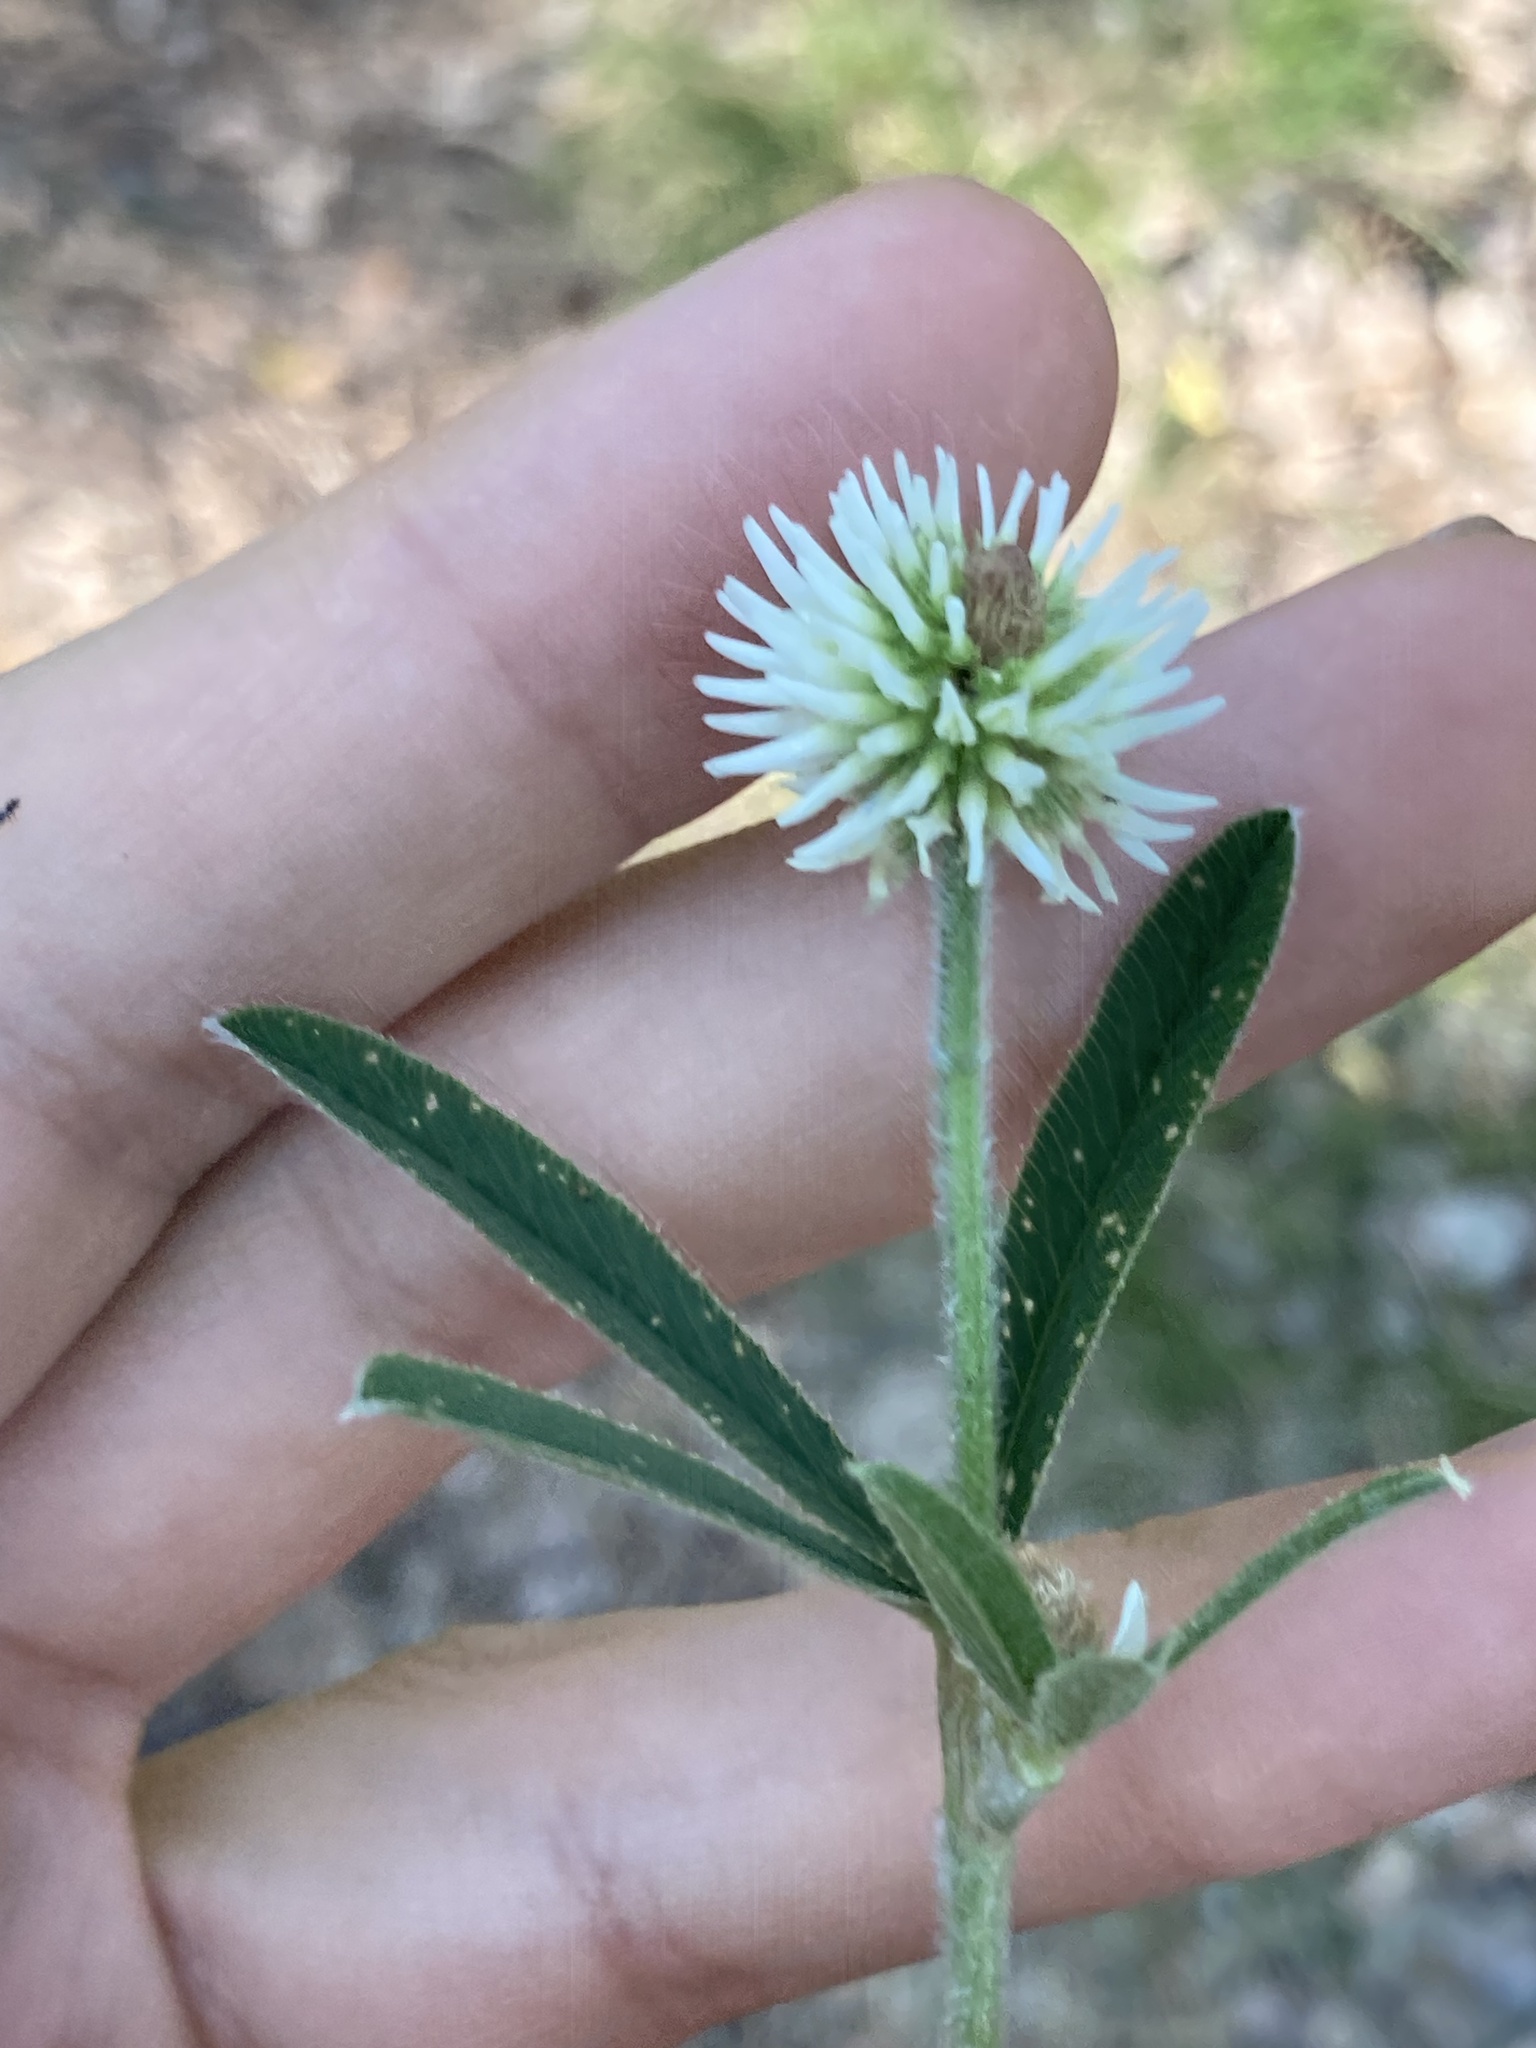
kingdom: Plantae
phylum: Tracheophyta
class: Magnoliopsida
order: Fabales
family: Fabaceae
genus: Trifolium
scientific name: Trifolium montanum
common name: Mountain clover
